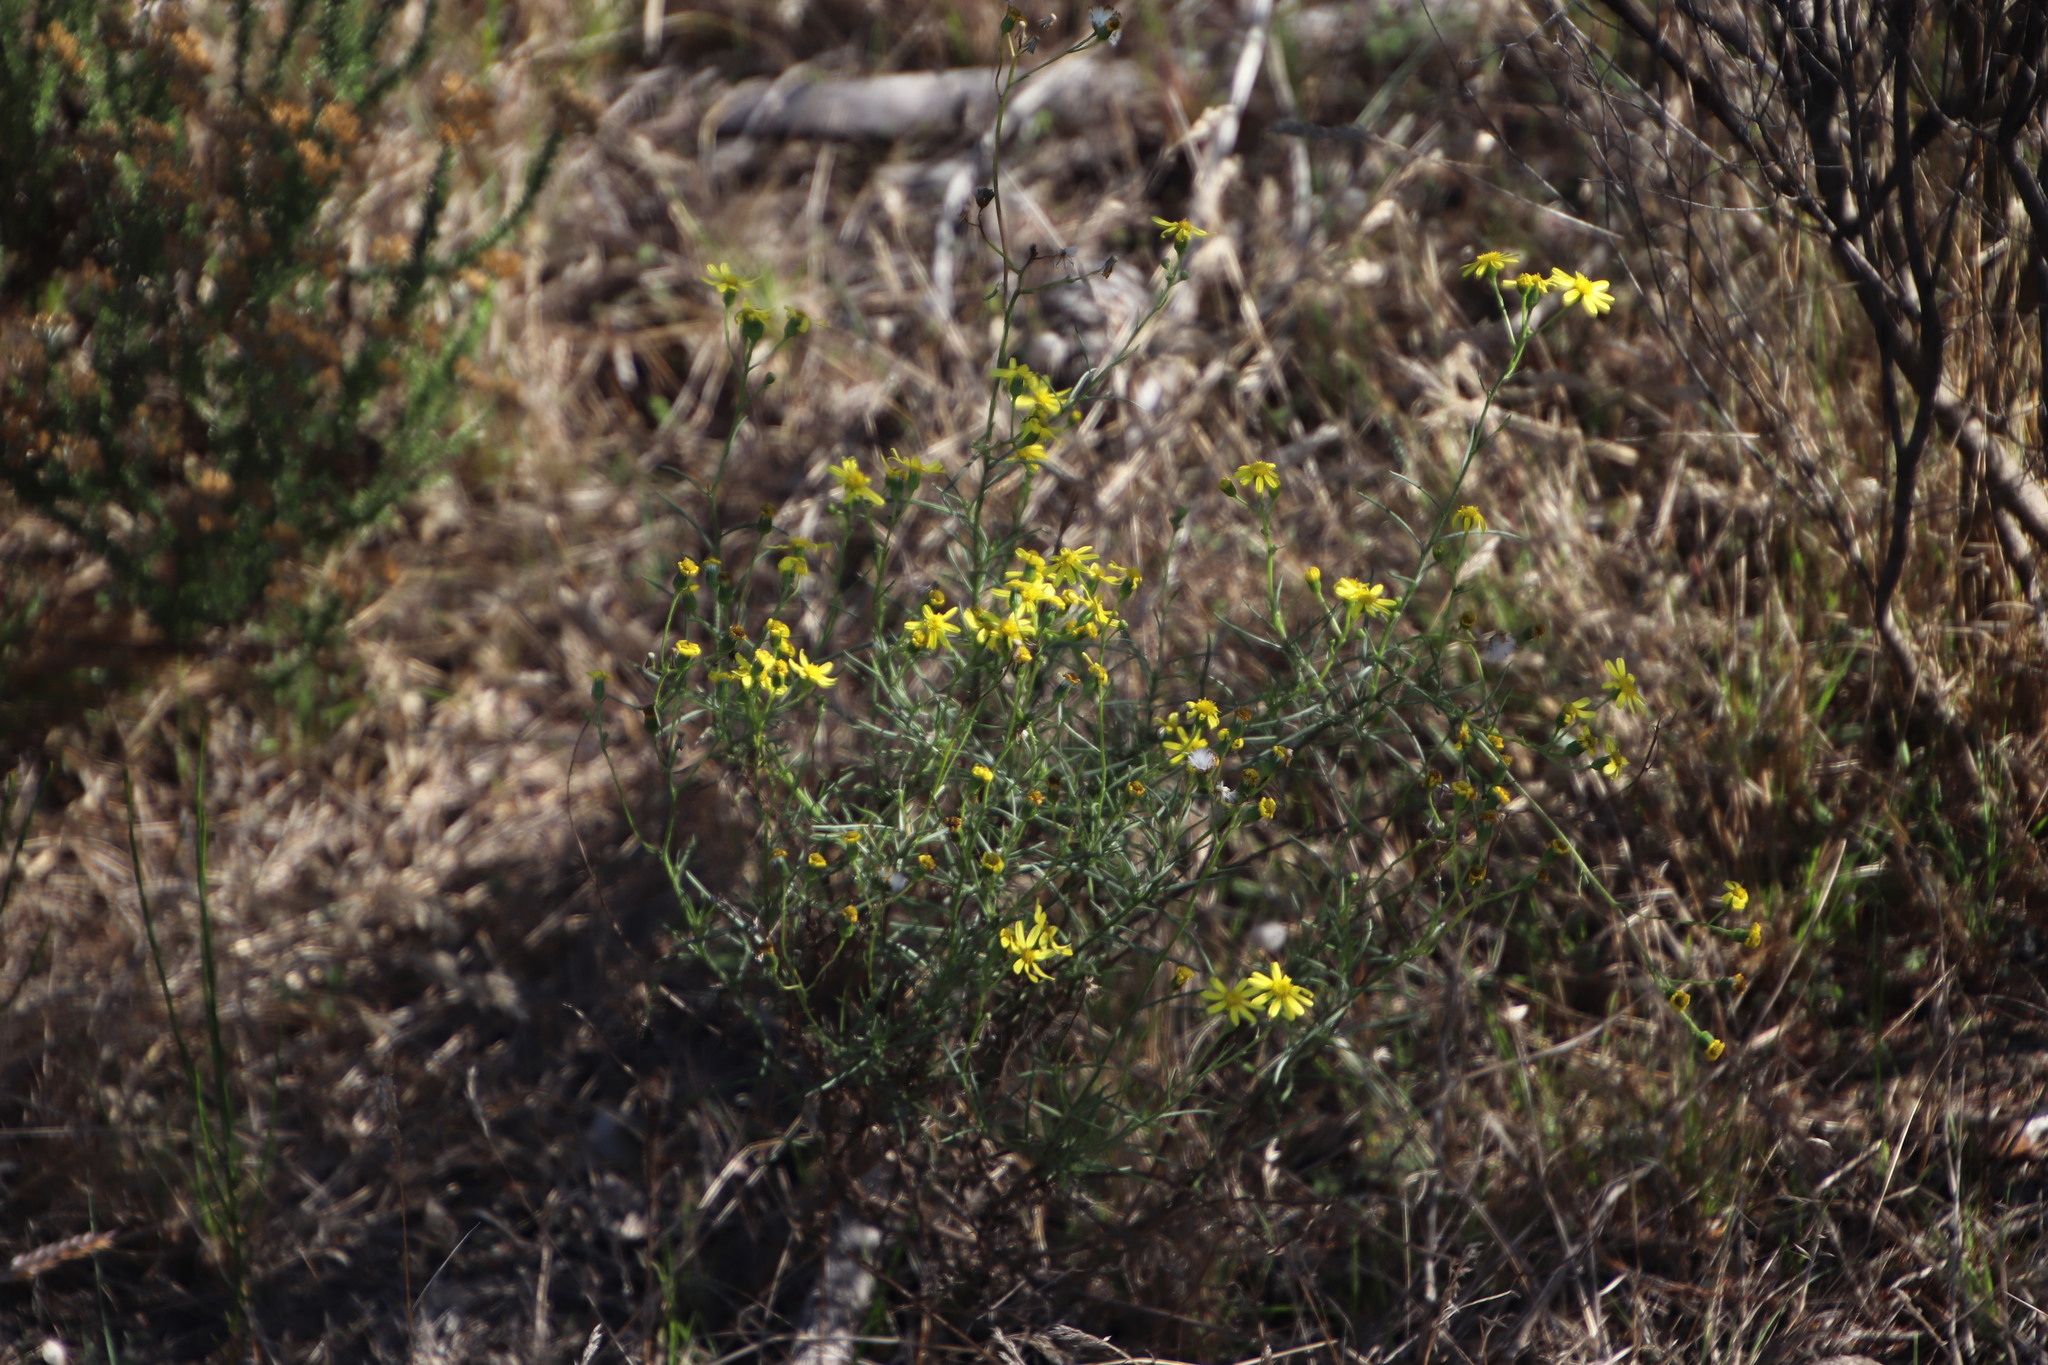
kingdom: Plantae
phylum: Tracheophyta
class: Magnoliopsida
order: Asterales
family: Asteraceae
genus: Senecio
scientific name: Senecio burchellii
